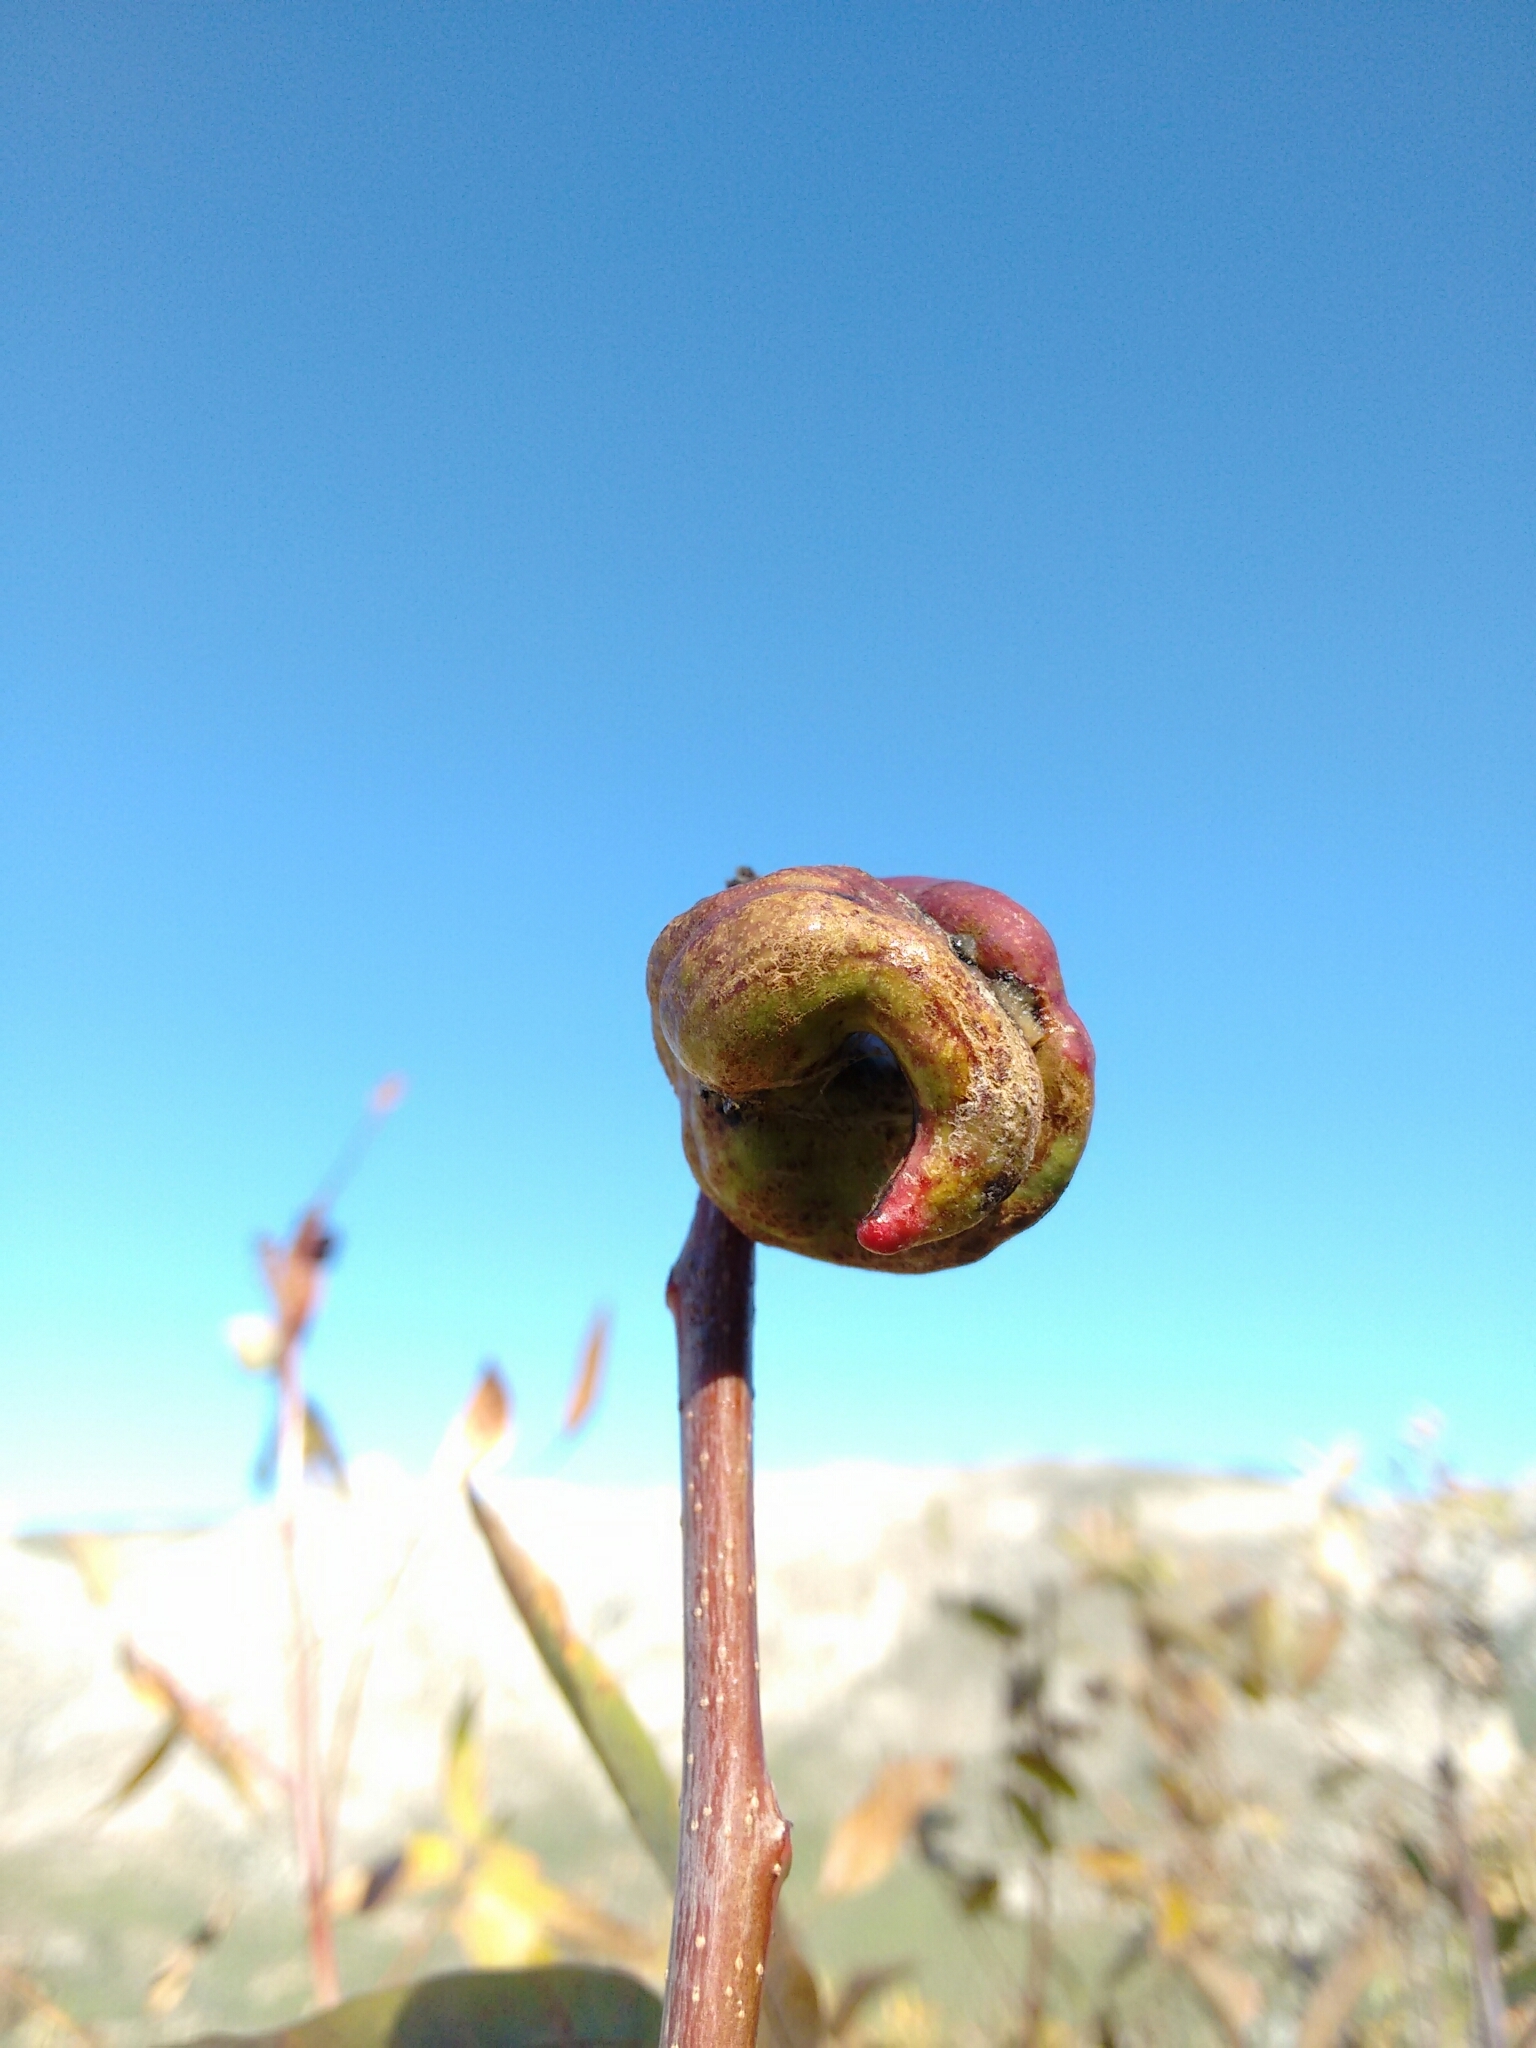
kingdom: Plantae
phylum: Tracheophyta
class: Magnoliopsida
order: Sapindales
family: Anacardiaceae
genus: Pistacia
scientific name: Pistacia terebinthus
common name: Terebinth
